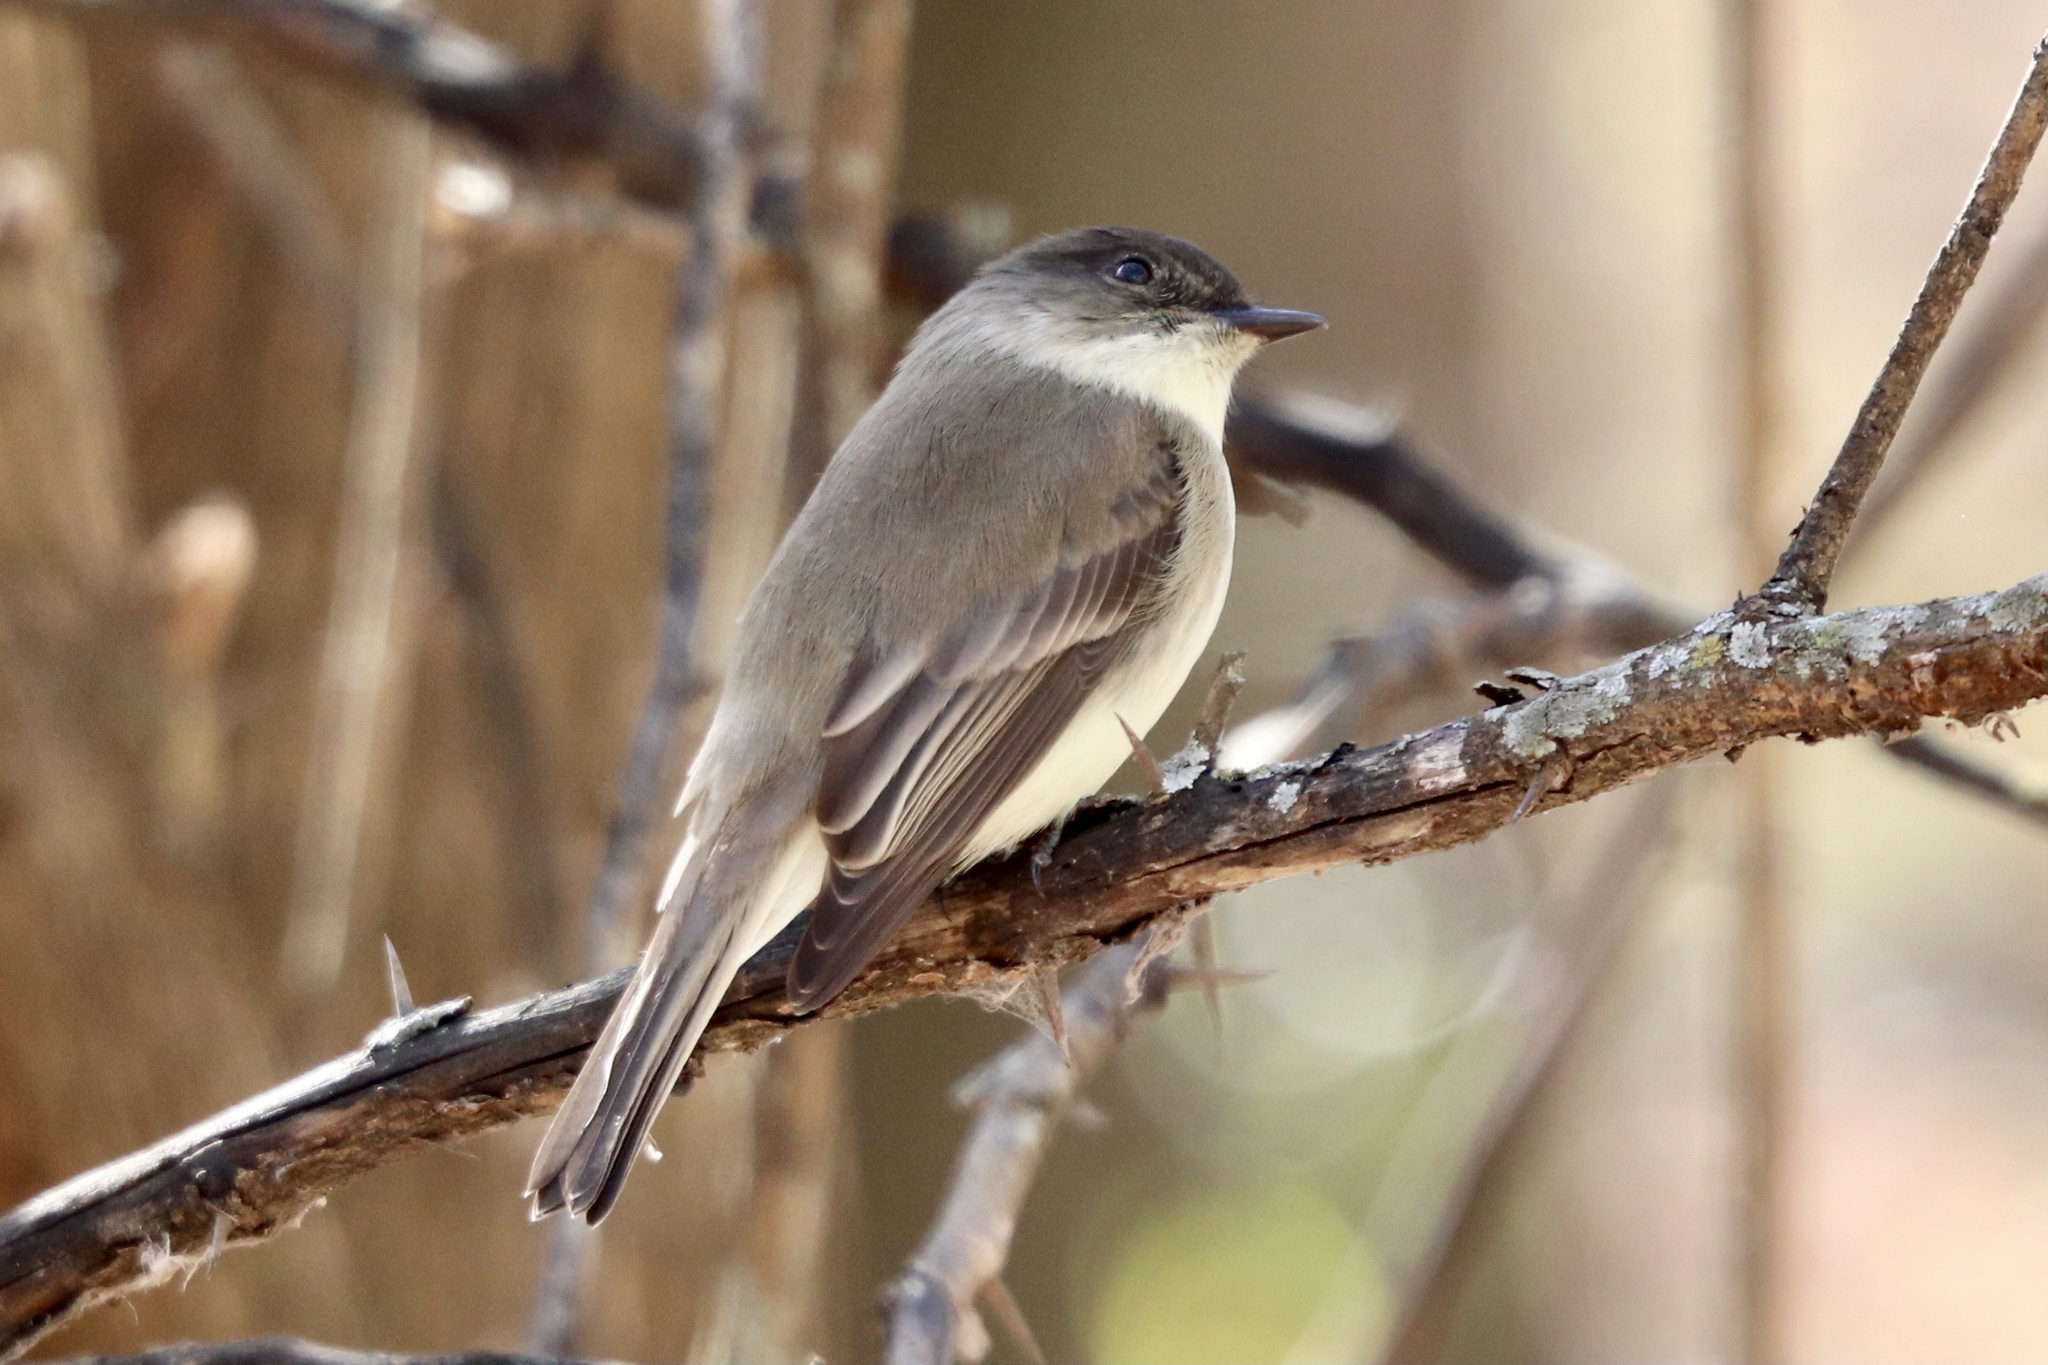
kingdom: Animalia
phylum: Chordata
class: Aves
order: Passeriformes
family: Tyrannidae
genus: Sayornis
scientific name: Sayornis phoebe
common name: Eastern phoebe
